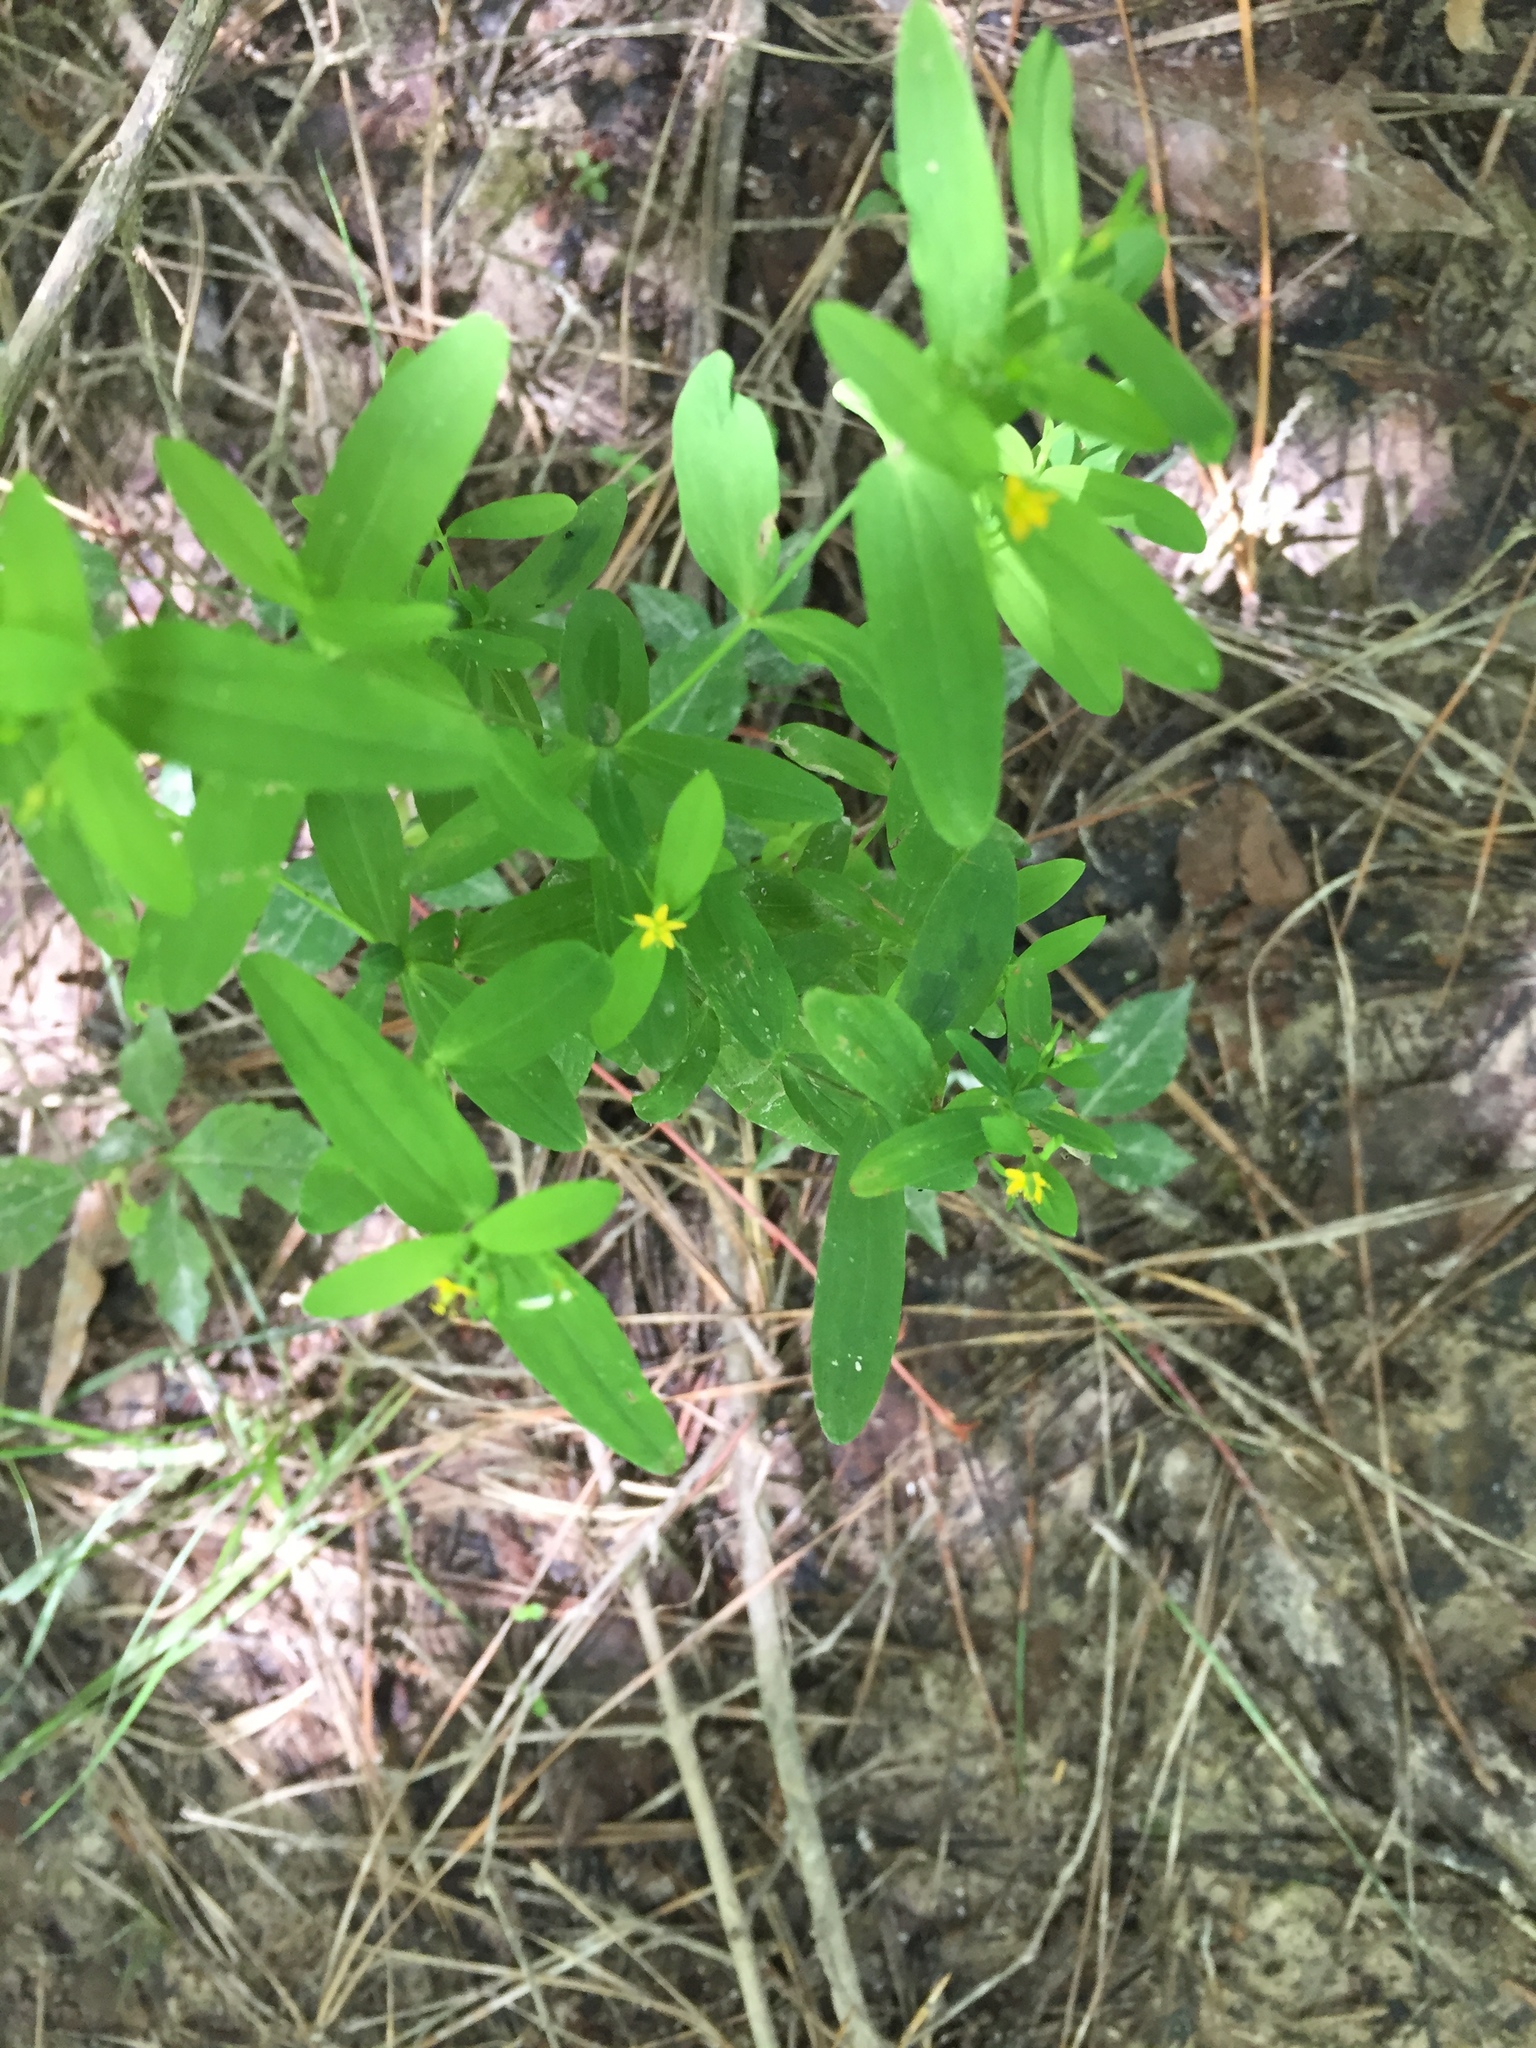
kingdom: Plantae
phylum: Tracheophyta
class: Magnoliopsida
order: Malpighiales
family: Hypericaceae
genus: Hypericum
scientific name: Hypericum mutilum
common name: Dwarf st. john's-wort
